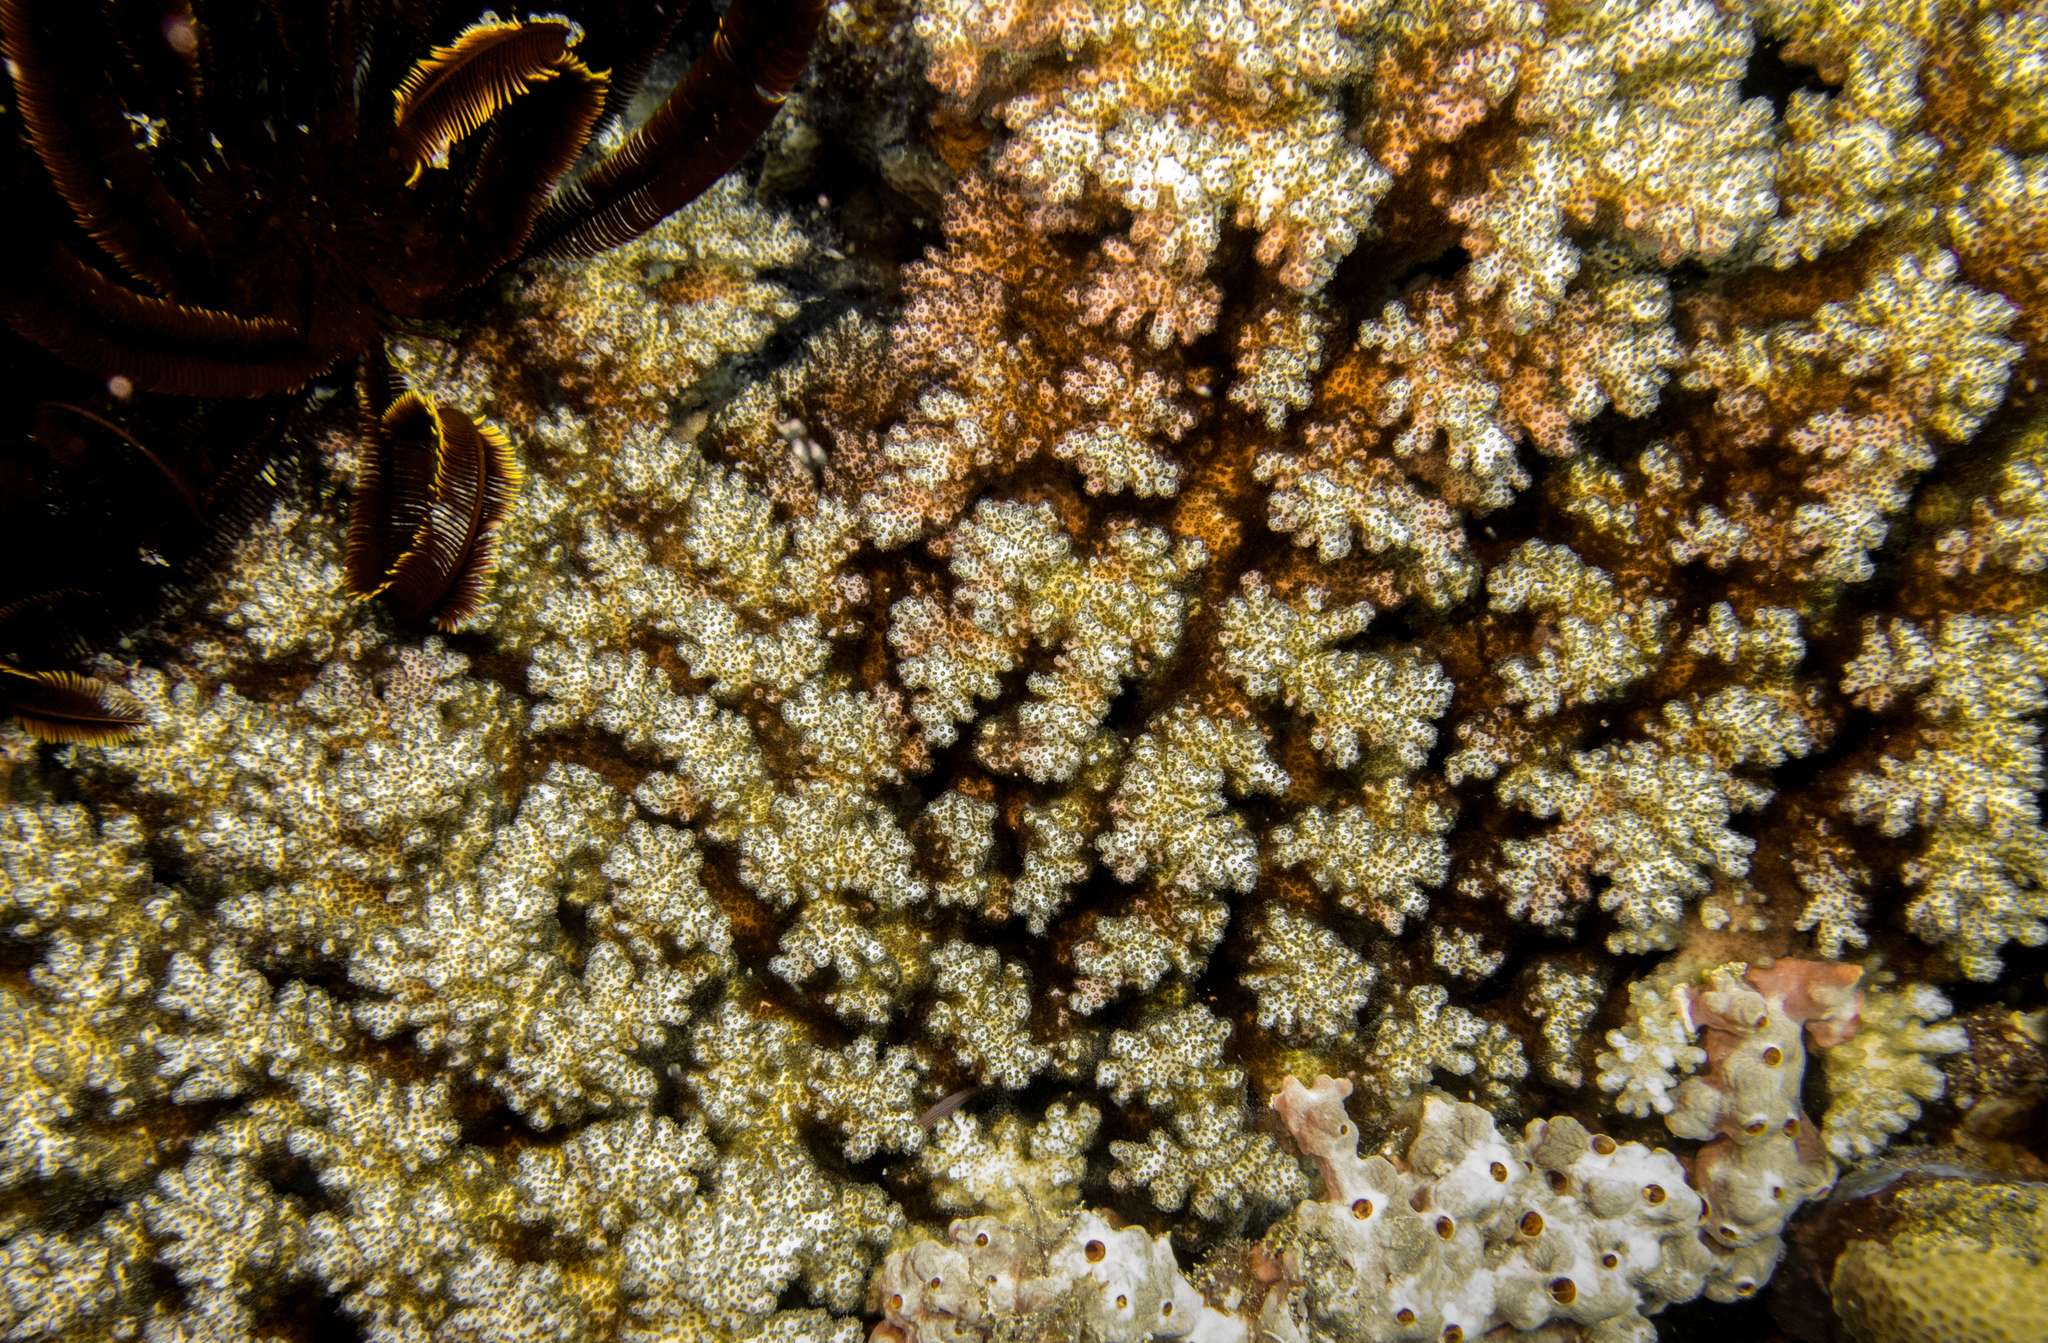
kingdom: Animalia
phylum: Cnidaria
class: Anthozoa
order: Scleractinia
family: Pocilloporidae
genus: Pocillopora
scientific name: Pocillopora damicornis
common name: Cauliflower coral
